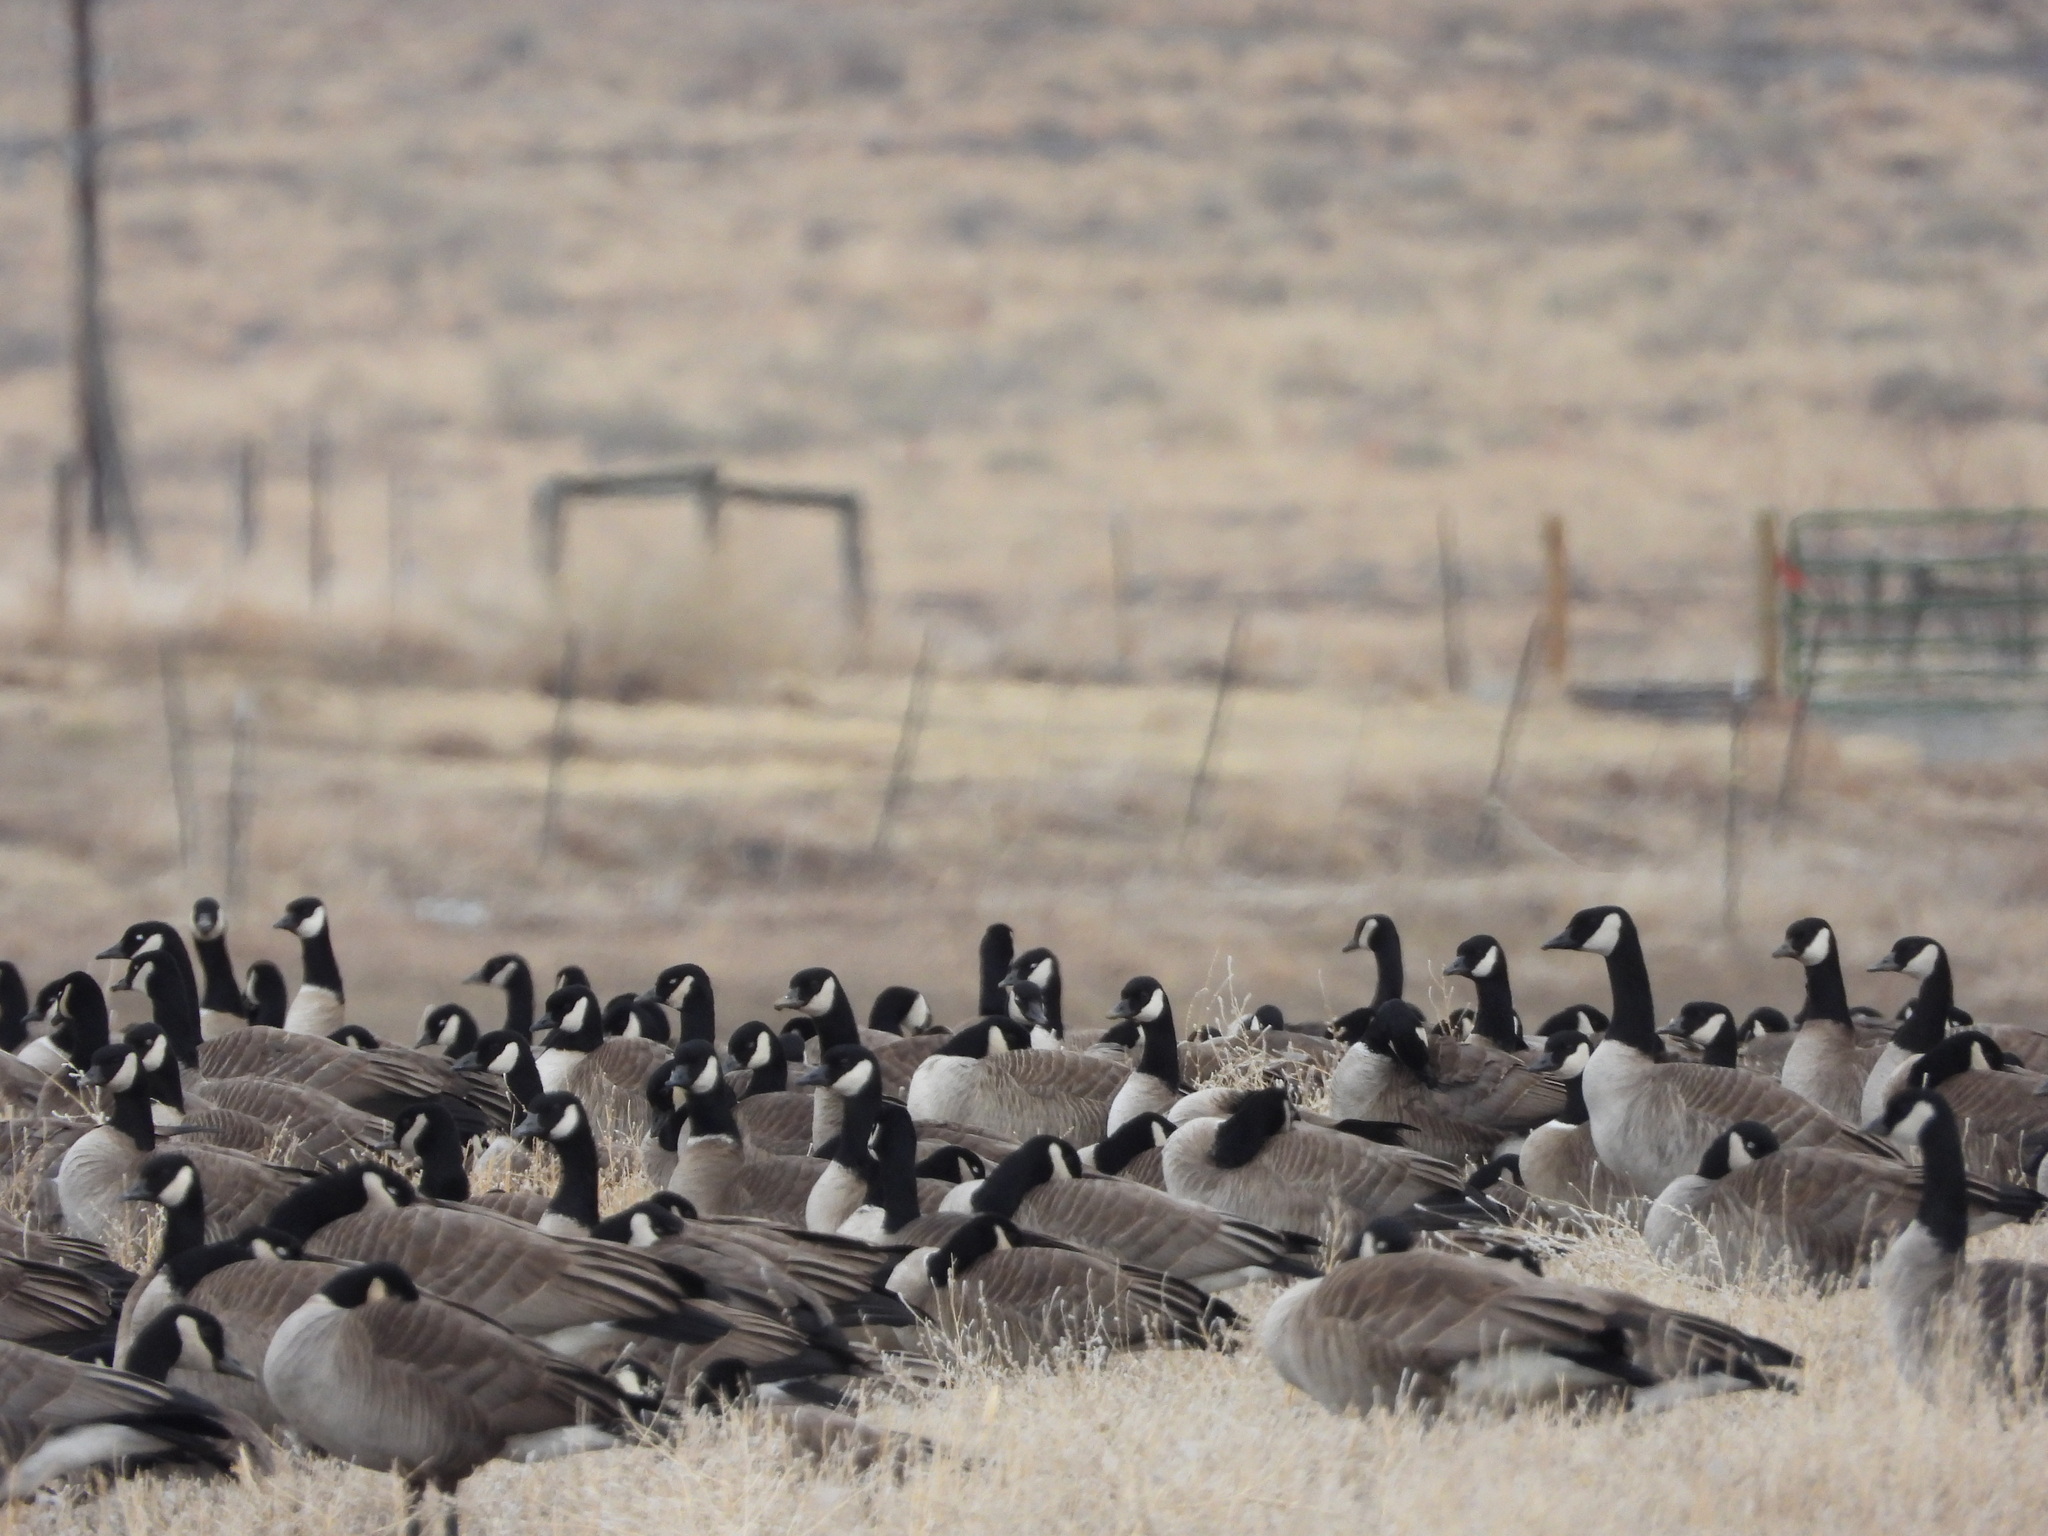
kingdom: Animalia
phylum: Chordata
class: Aves
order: Anseriformes
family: Anatidae
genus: Branta
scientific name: Branta canadensis
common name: Canada goose
